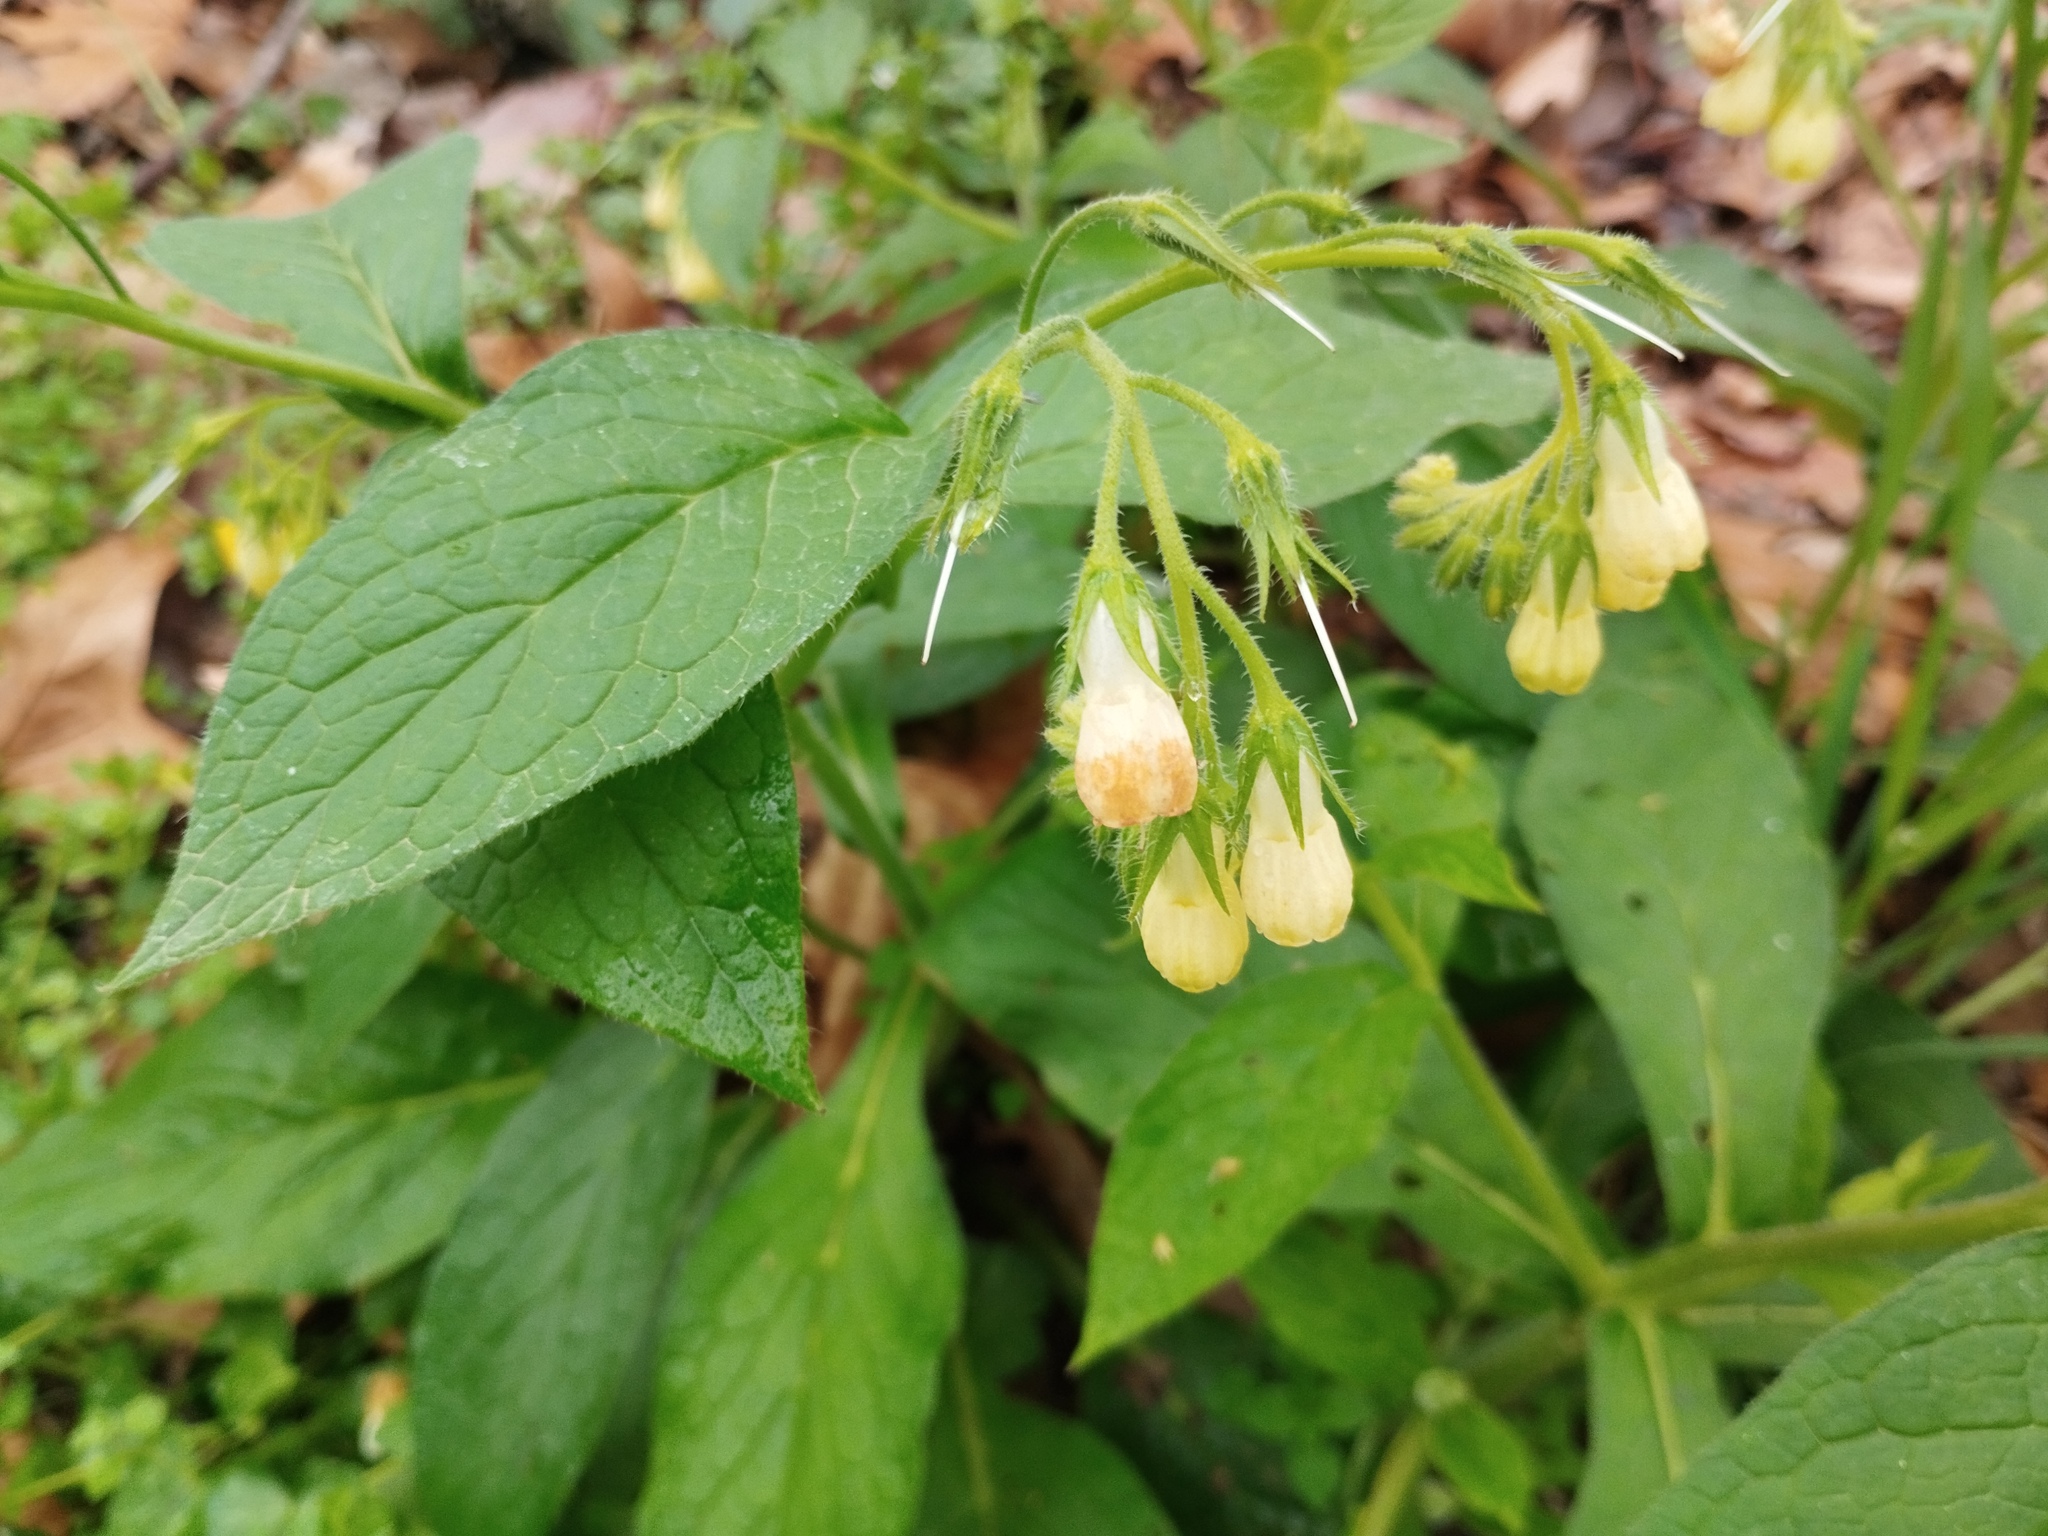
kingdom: Plantae
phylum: Tracheophyta
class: Magnoliopsida
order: Boraginales
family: Boraginaceae
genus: Symphytum
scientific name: Symphytum tuberosum
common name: Tuberous comfrey
